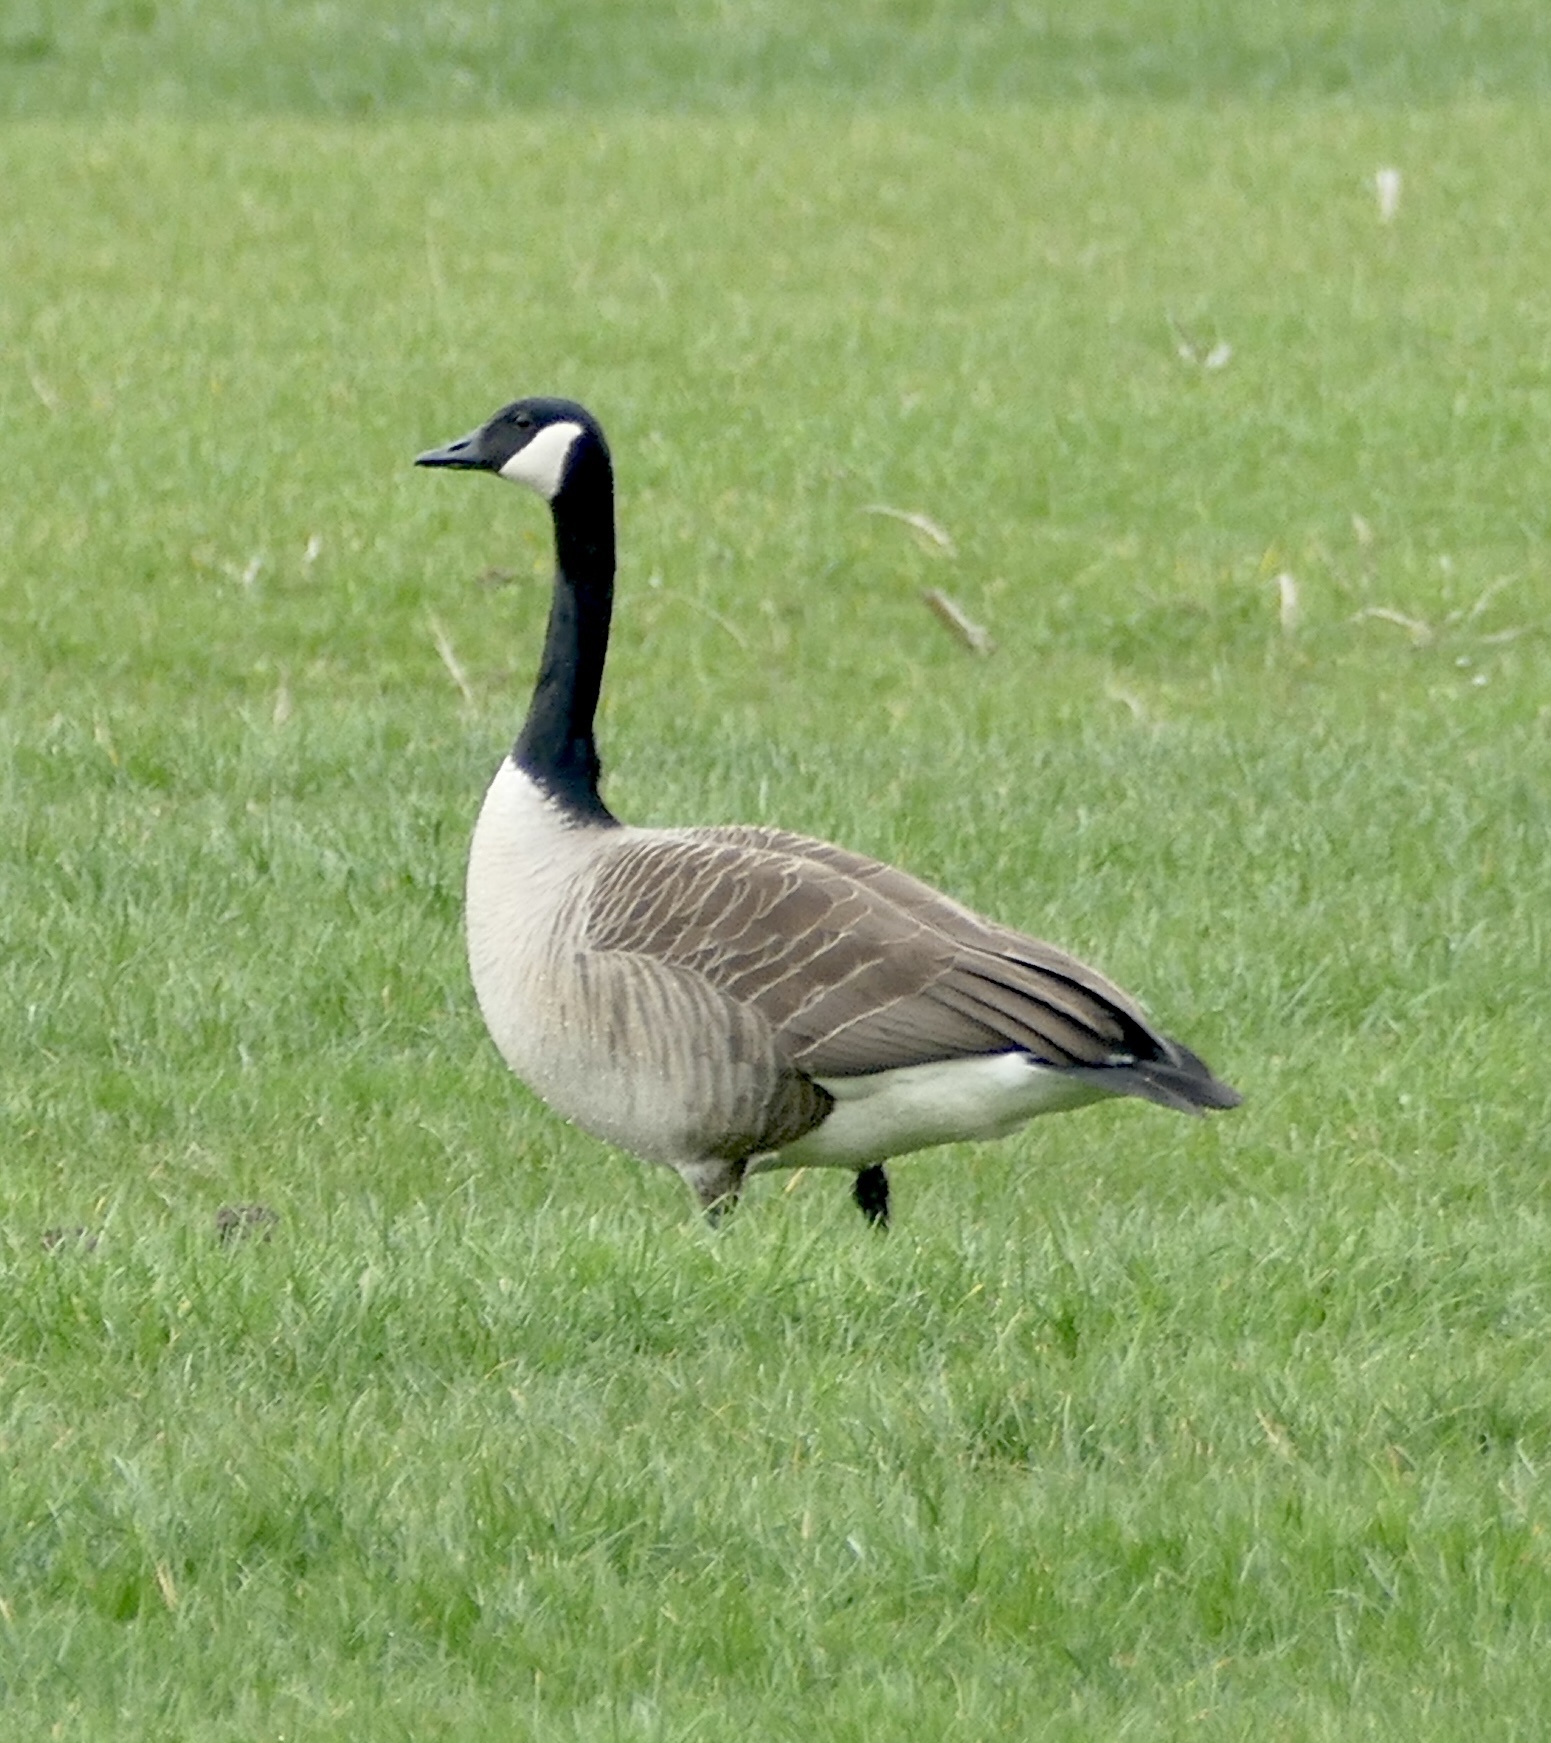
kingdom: Animalia
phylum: Chordata
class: Aves
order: Anseriformes
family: Anatidae
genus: Branta
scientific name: Branta canadensis
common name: Canada goose
